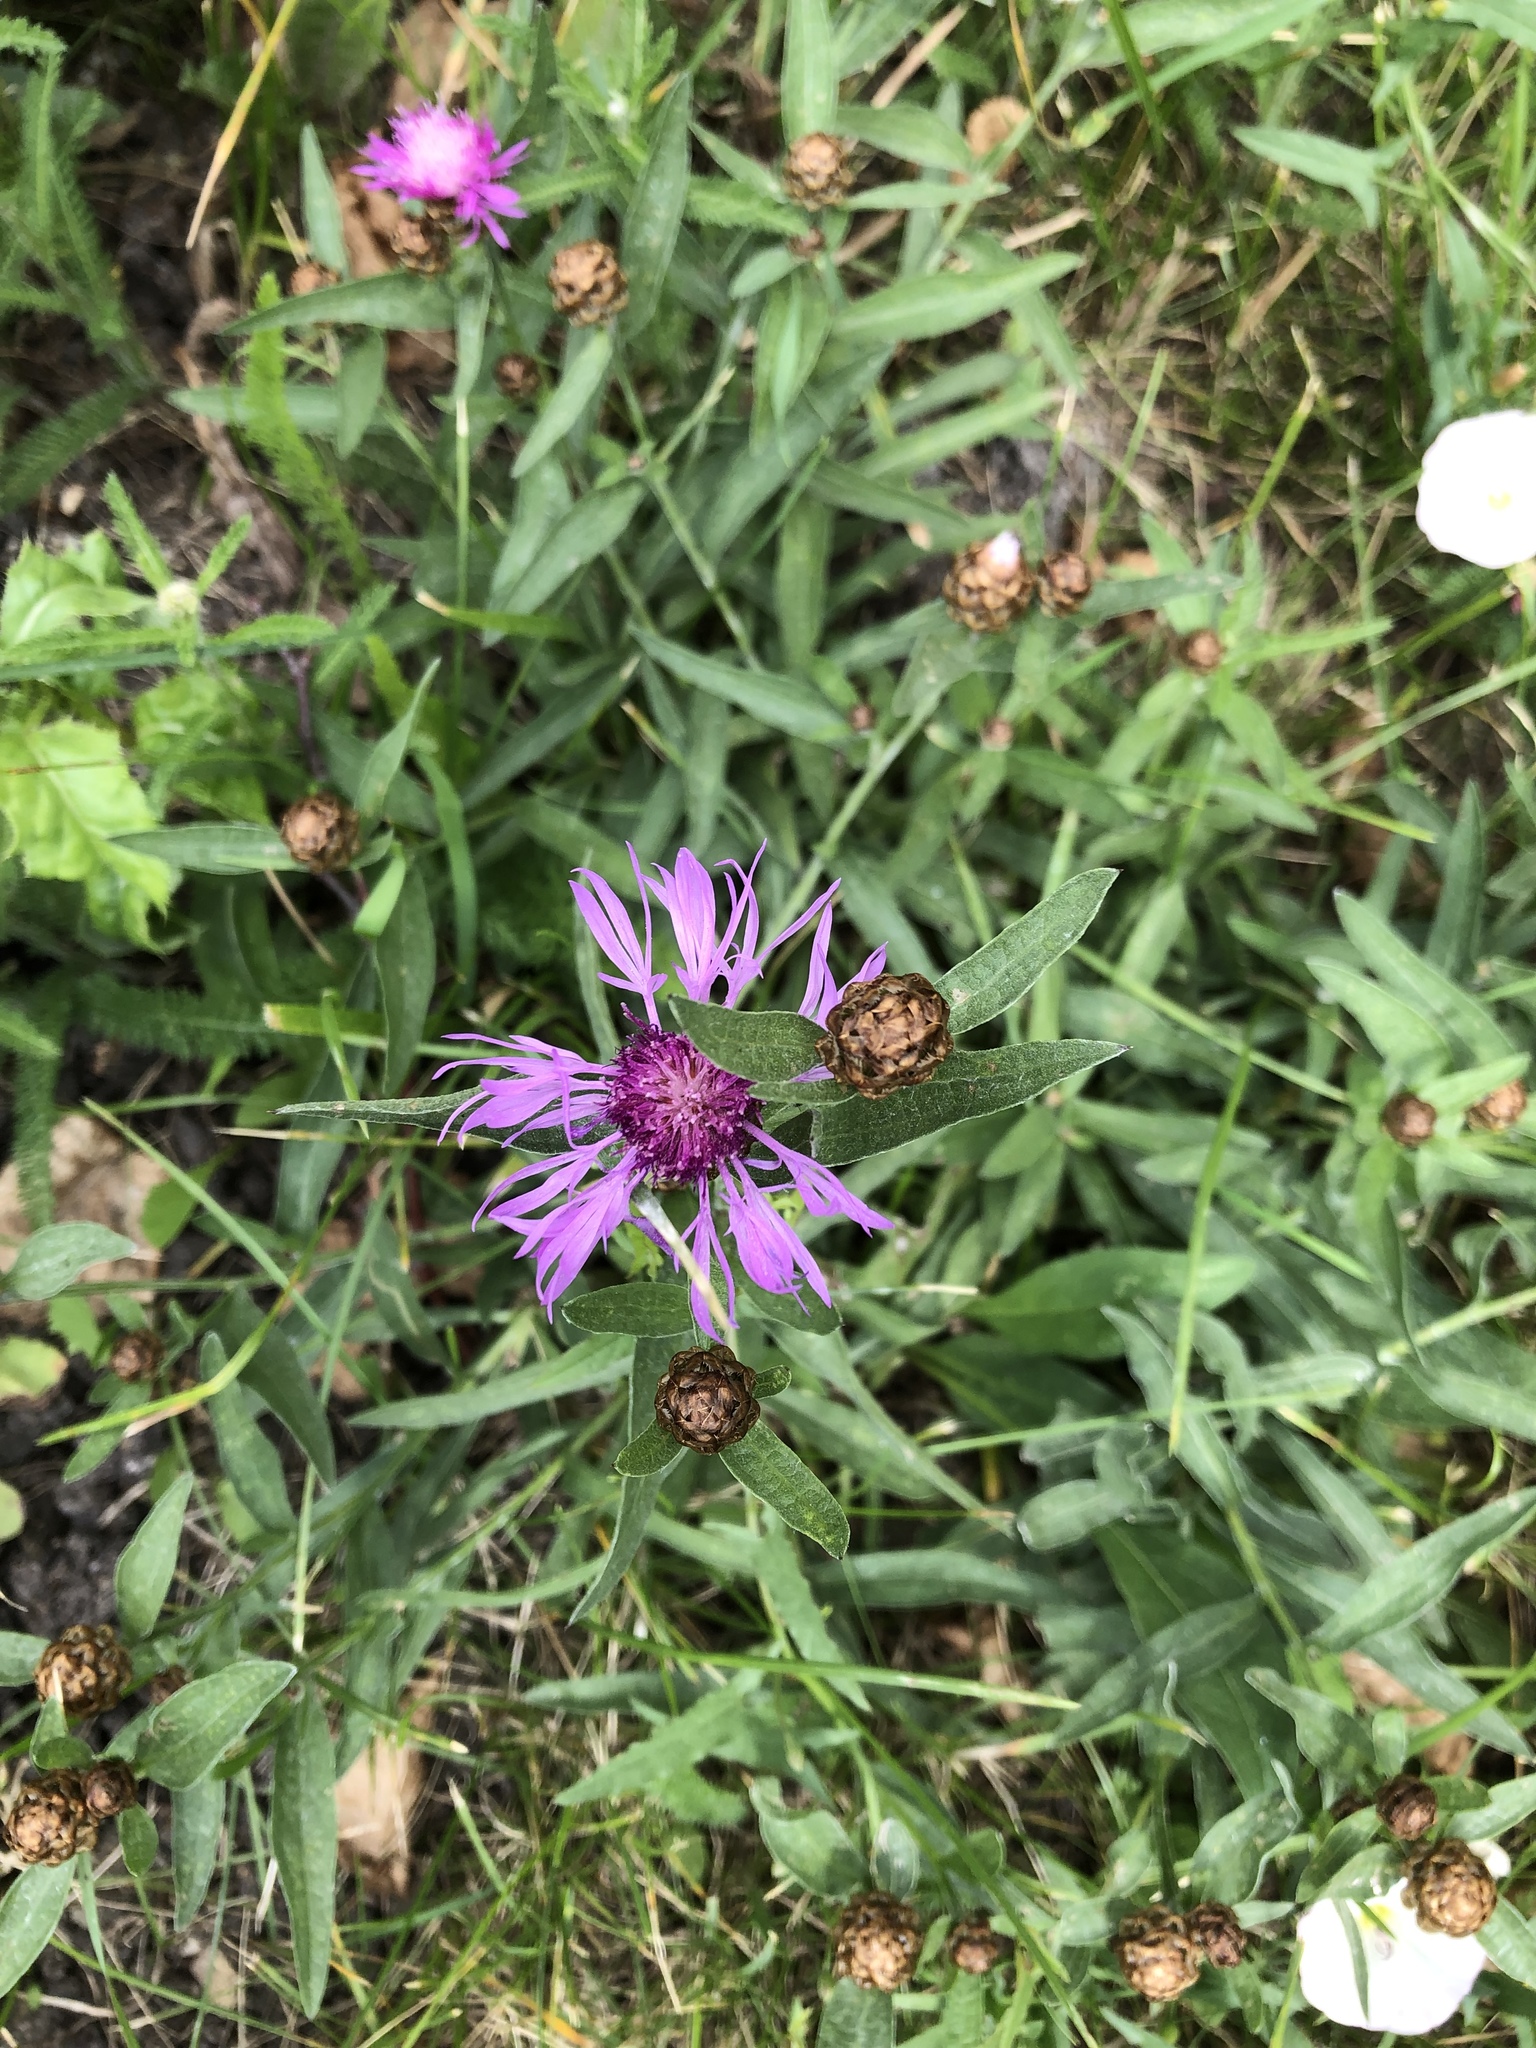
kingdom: Plantae
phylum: Tracheophyta
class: Magnoliopsida
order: Asterales
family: Asteraceae
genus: Centaurea
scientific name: Centaurea jacea
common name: Brown knapweed
